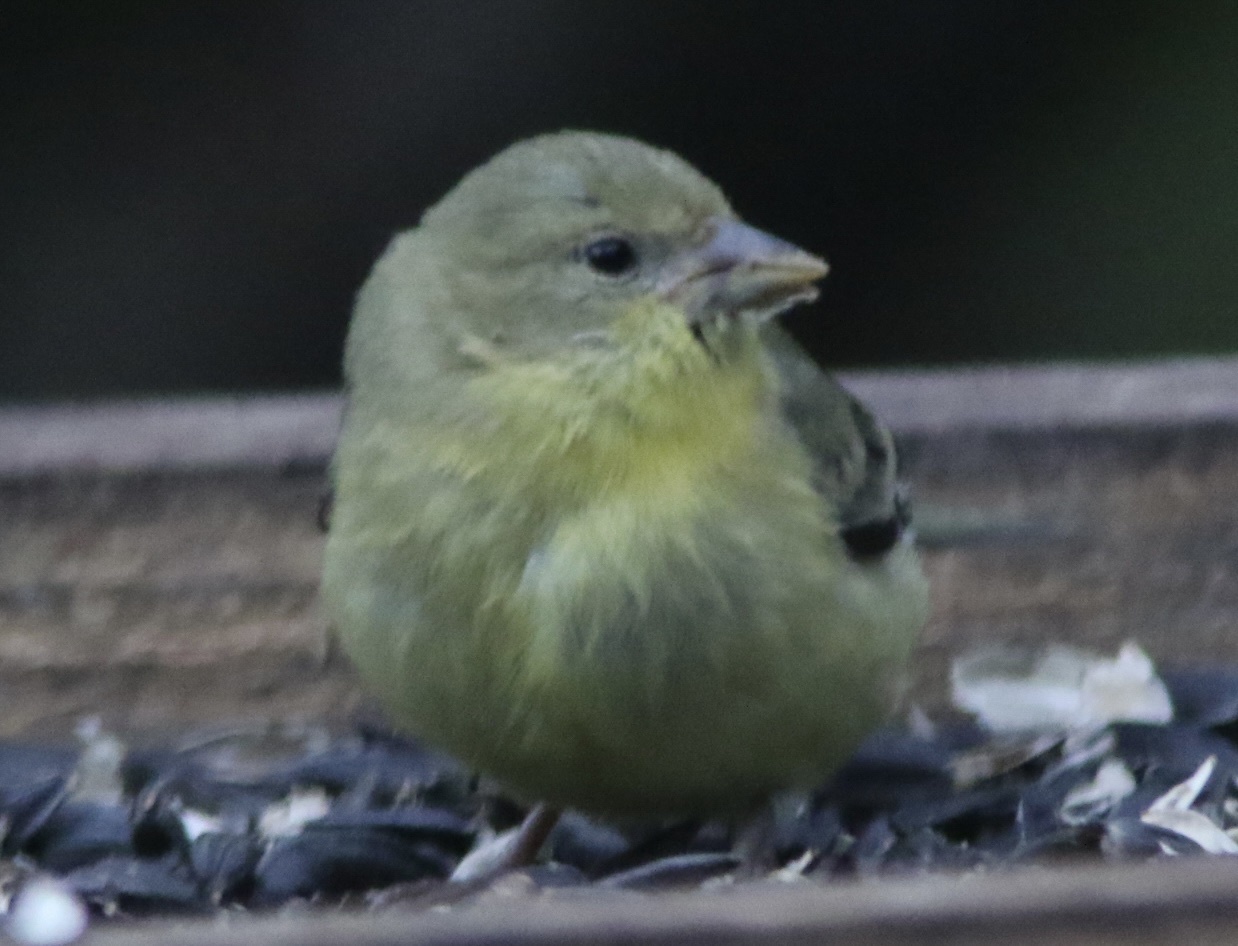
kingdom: Animalia
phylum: Chordata
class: Aves
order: Passeriformes
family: Fringillidae
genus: Spinus
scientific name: Spinus psaltria
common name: Lesser goldfinch
